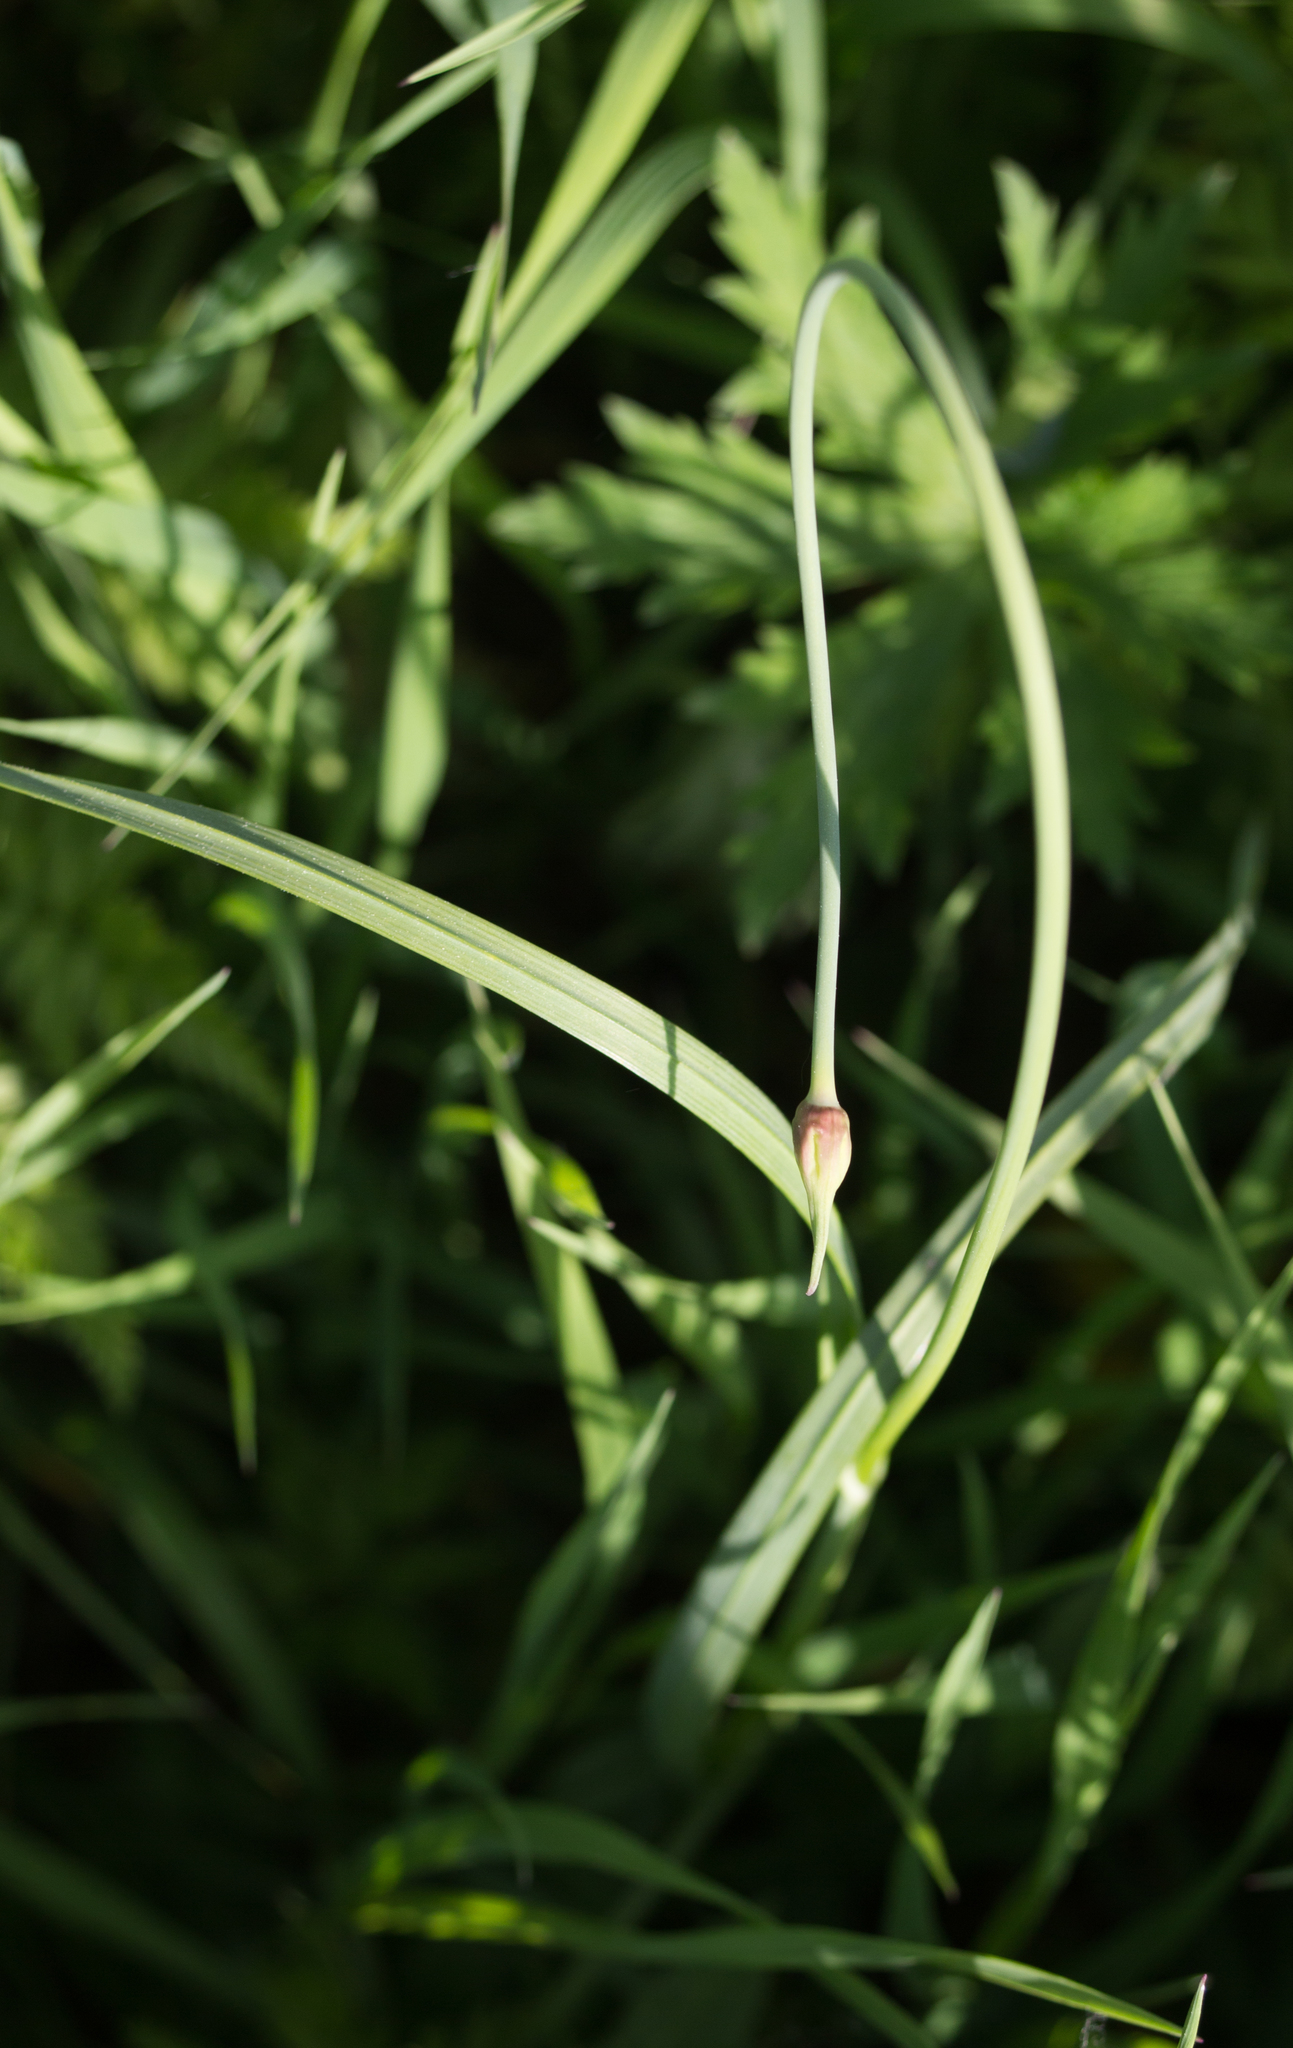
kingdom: Plantae
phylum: Tracheophyta
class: Liliopsida
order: Asparagales
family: Amaryllidaceae
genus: Allium
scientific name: Allium rotundum
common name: Sand leek
